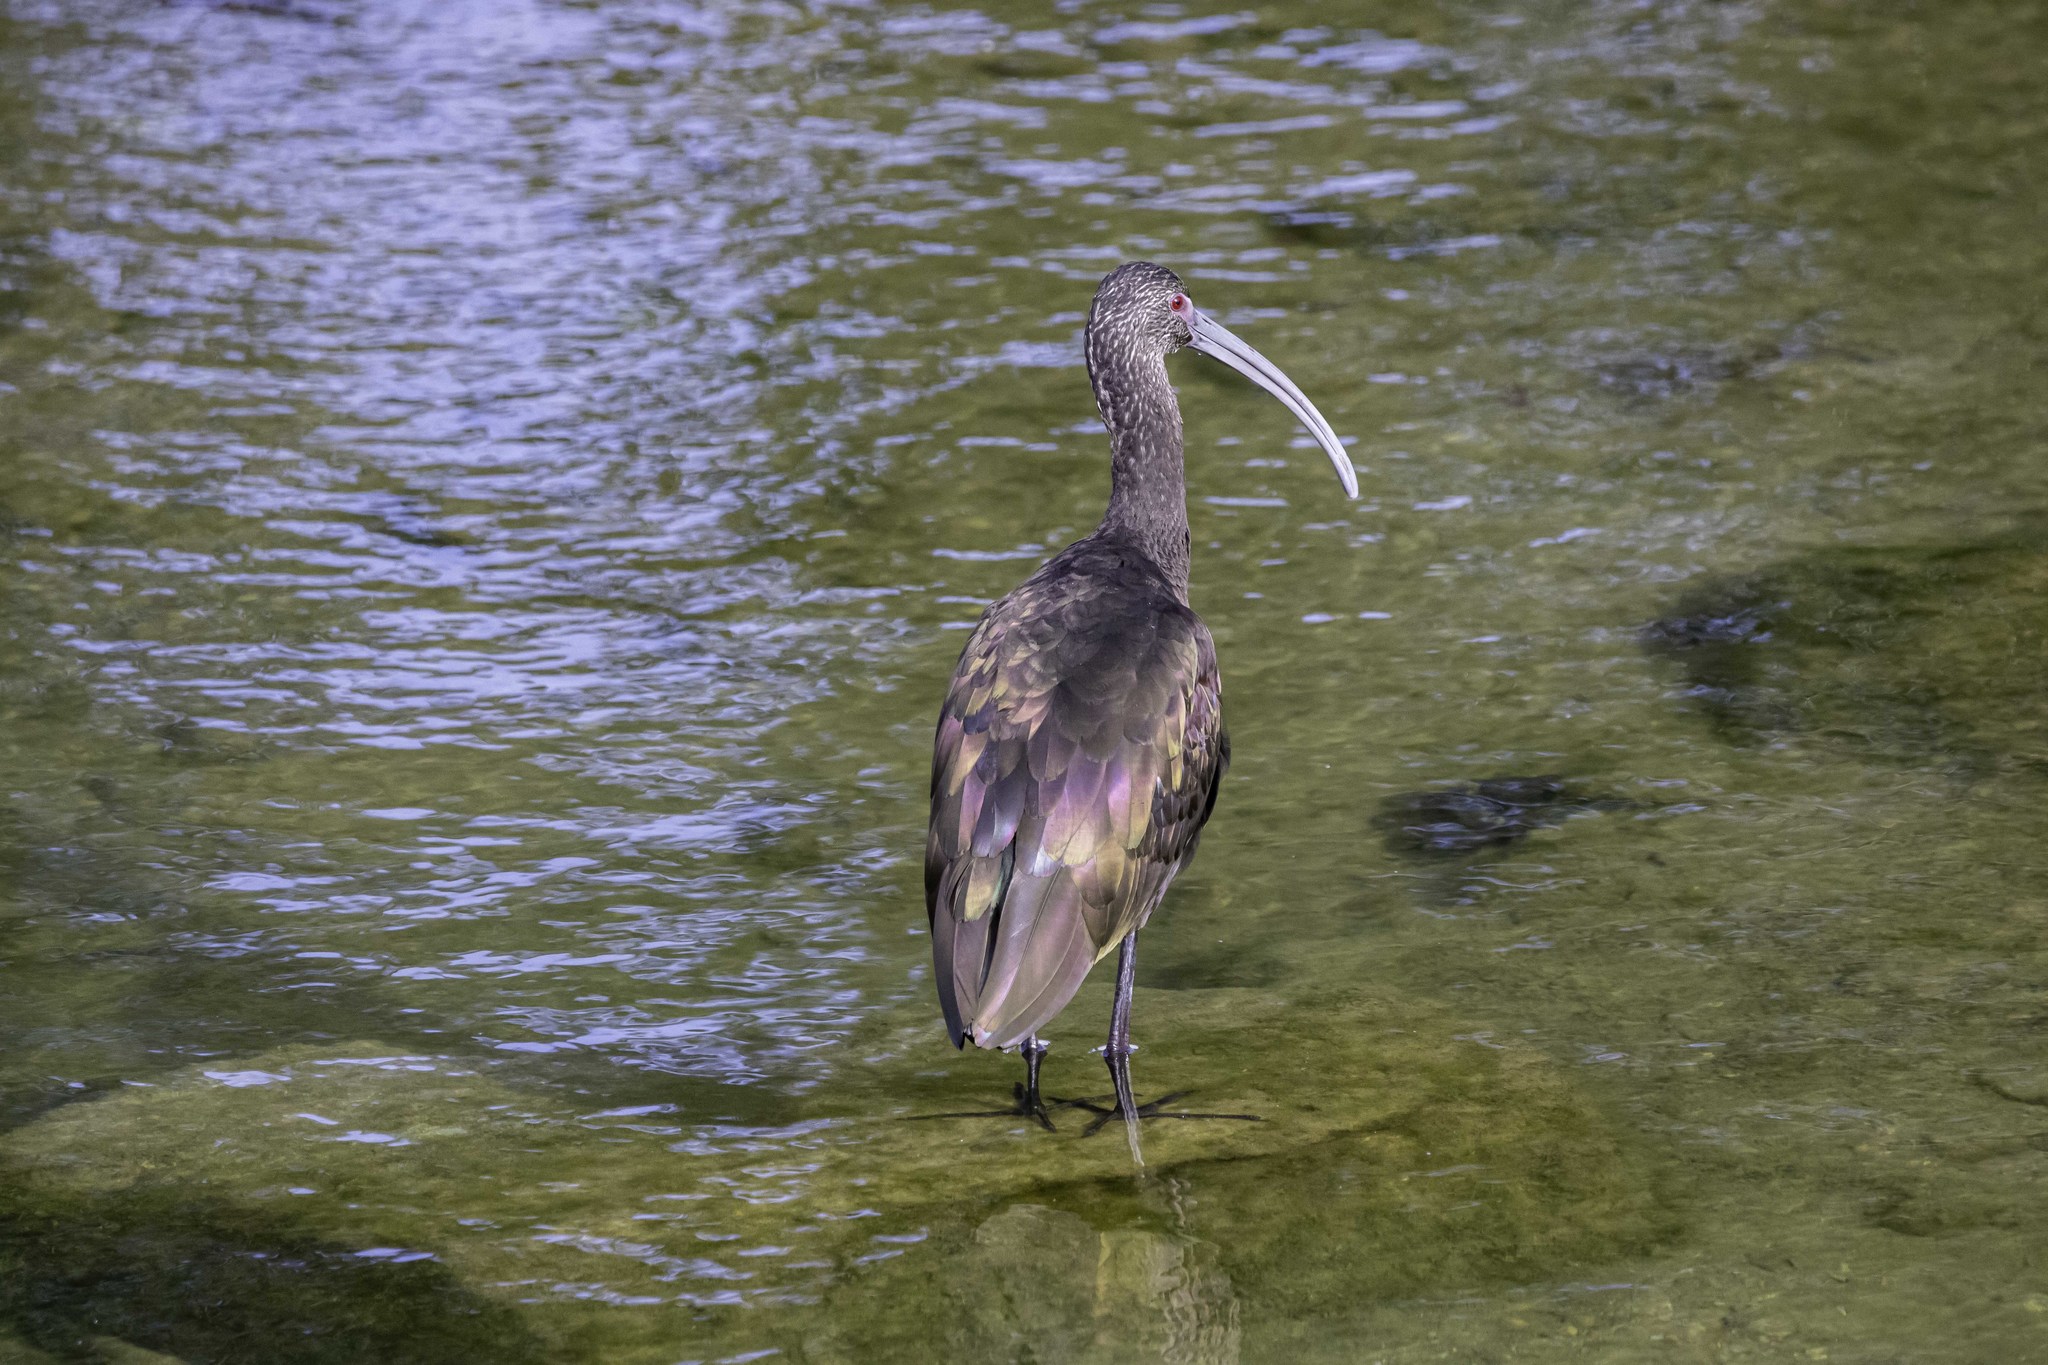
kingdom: Animalia
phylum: Chordata
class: Aves
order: Pelecaniformes
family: Threskiornithidae
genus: Plegadis
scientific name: Plegadis chihi
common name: White-faced ibis
